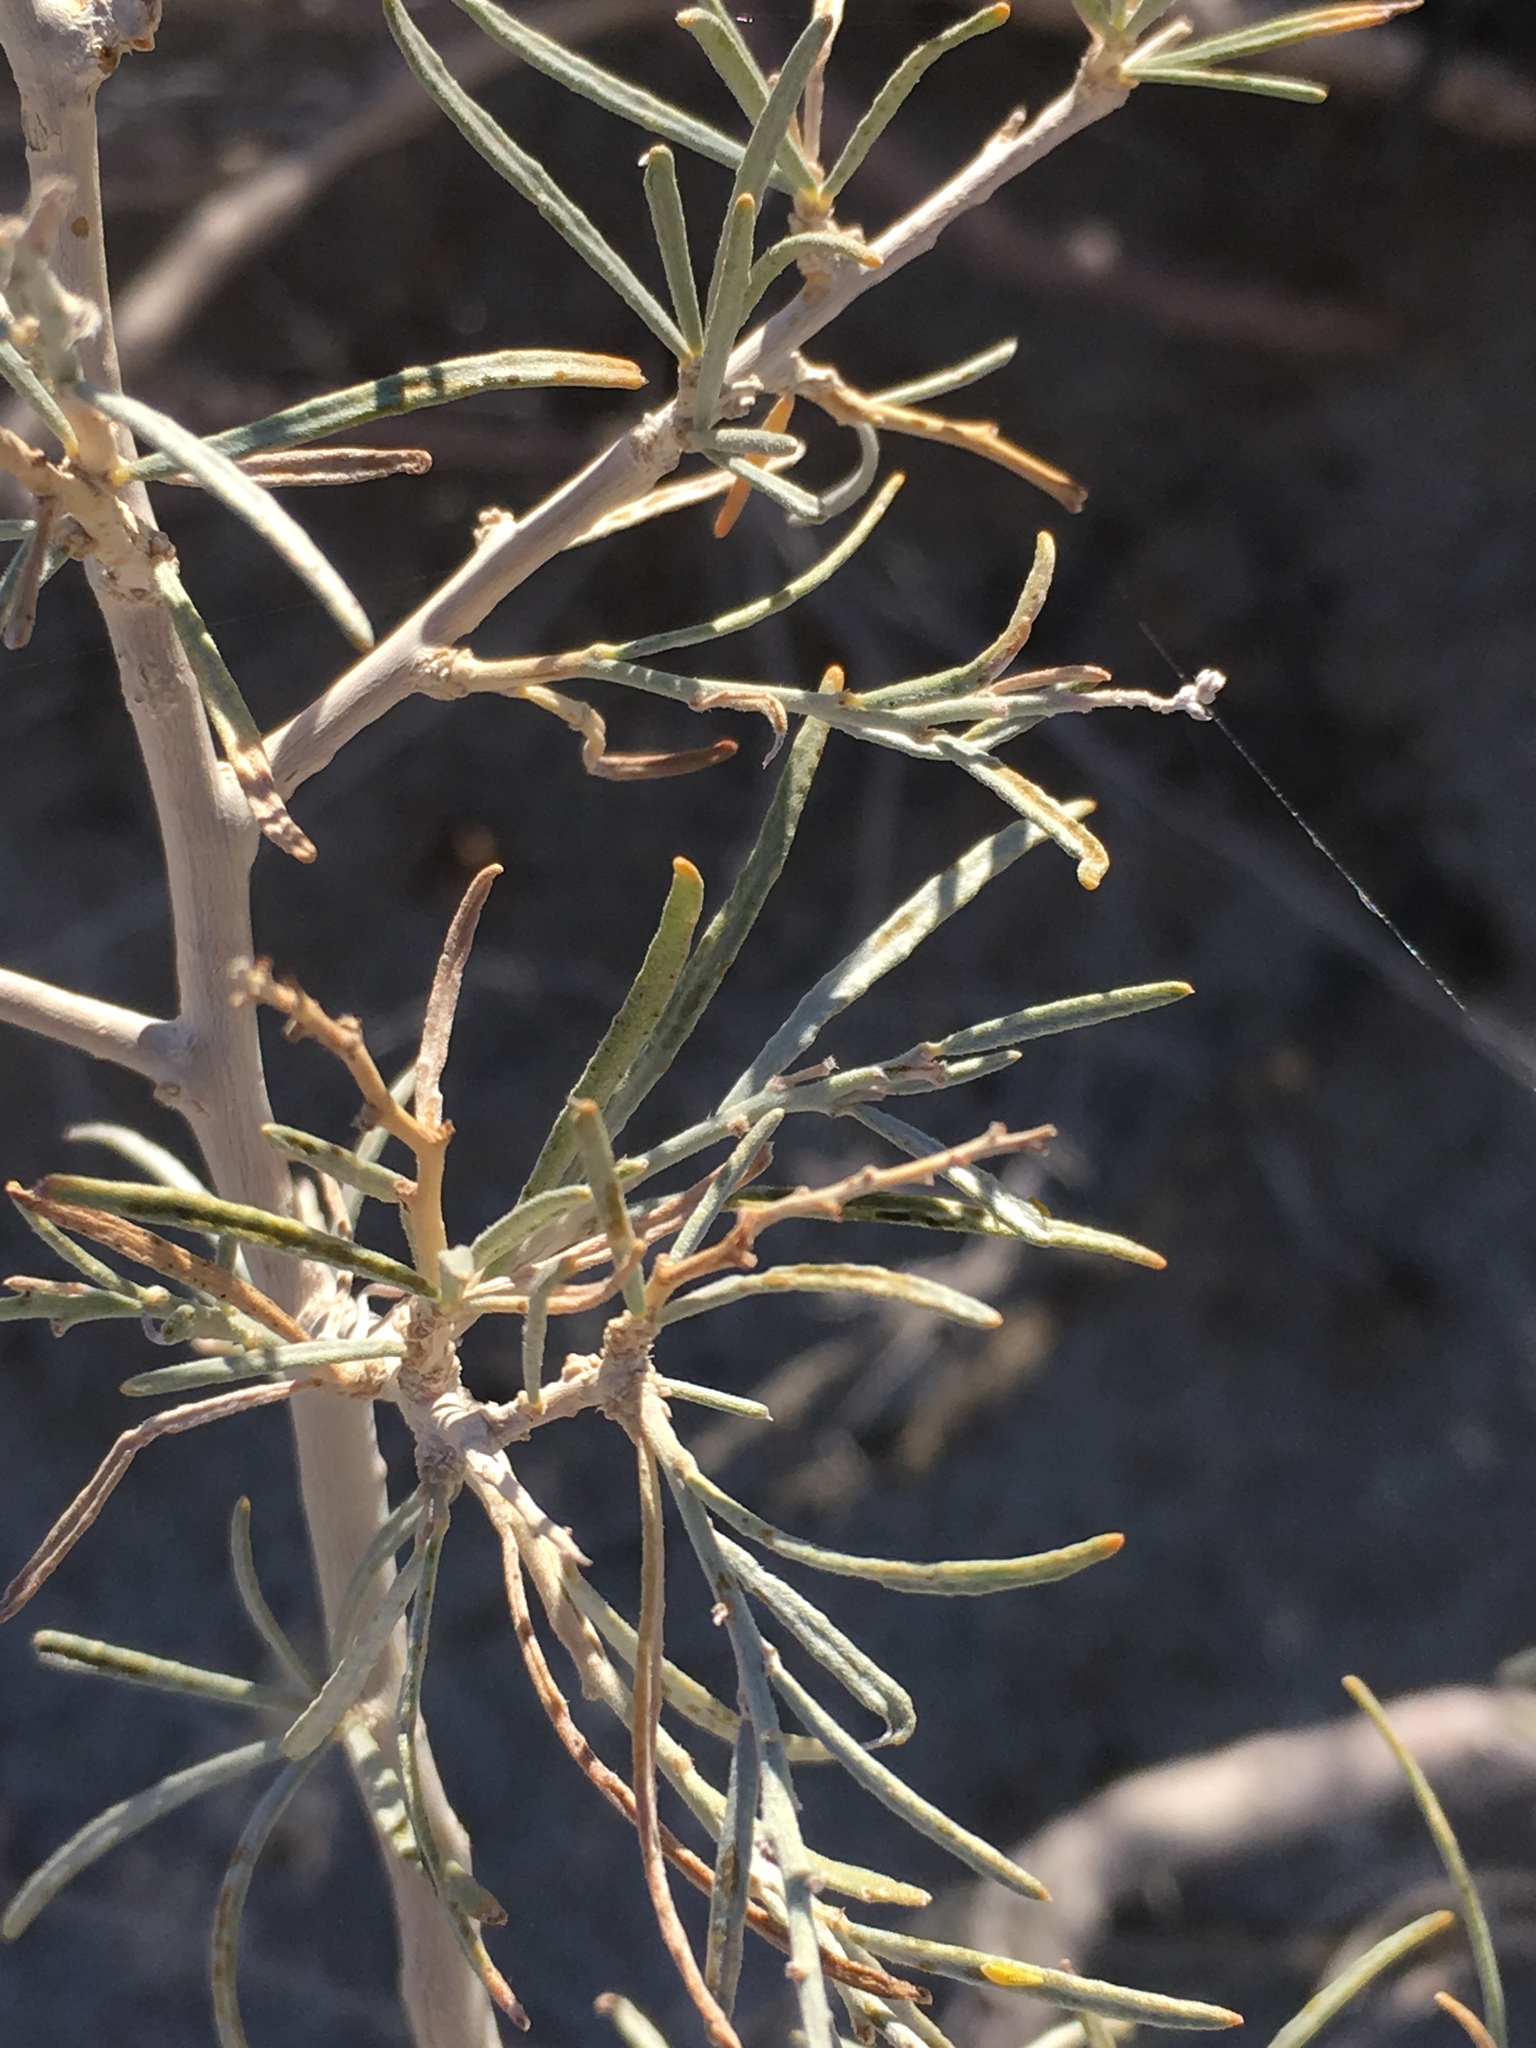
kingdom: Plantae
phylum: Tracheophyta
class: Magnoliopsida
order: Fabales
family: Fabaceae
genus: Psorothamnus
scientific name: Psorothamnus schottii
